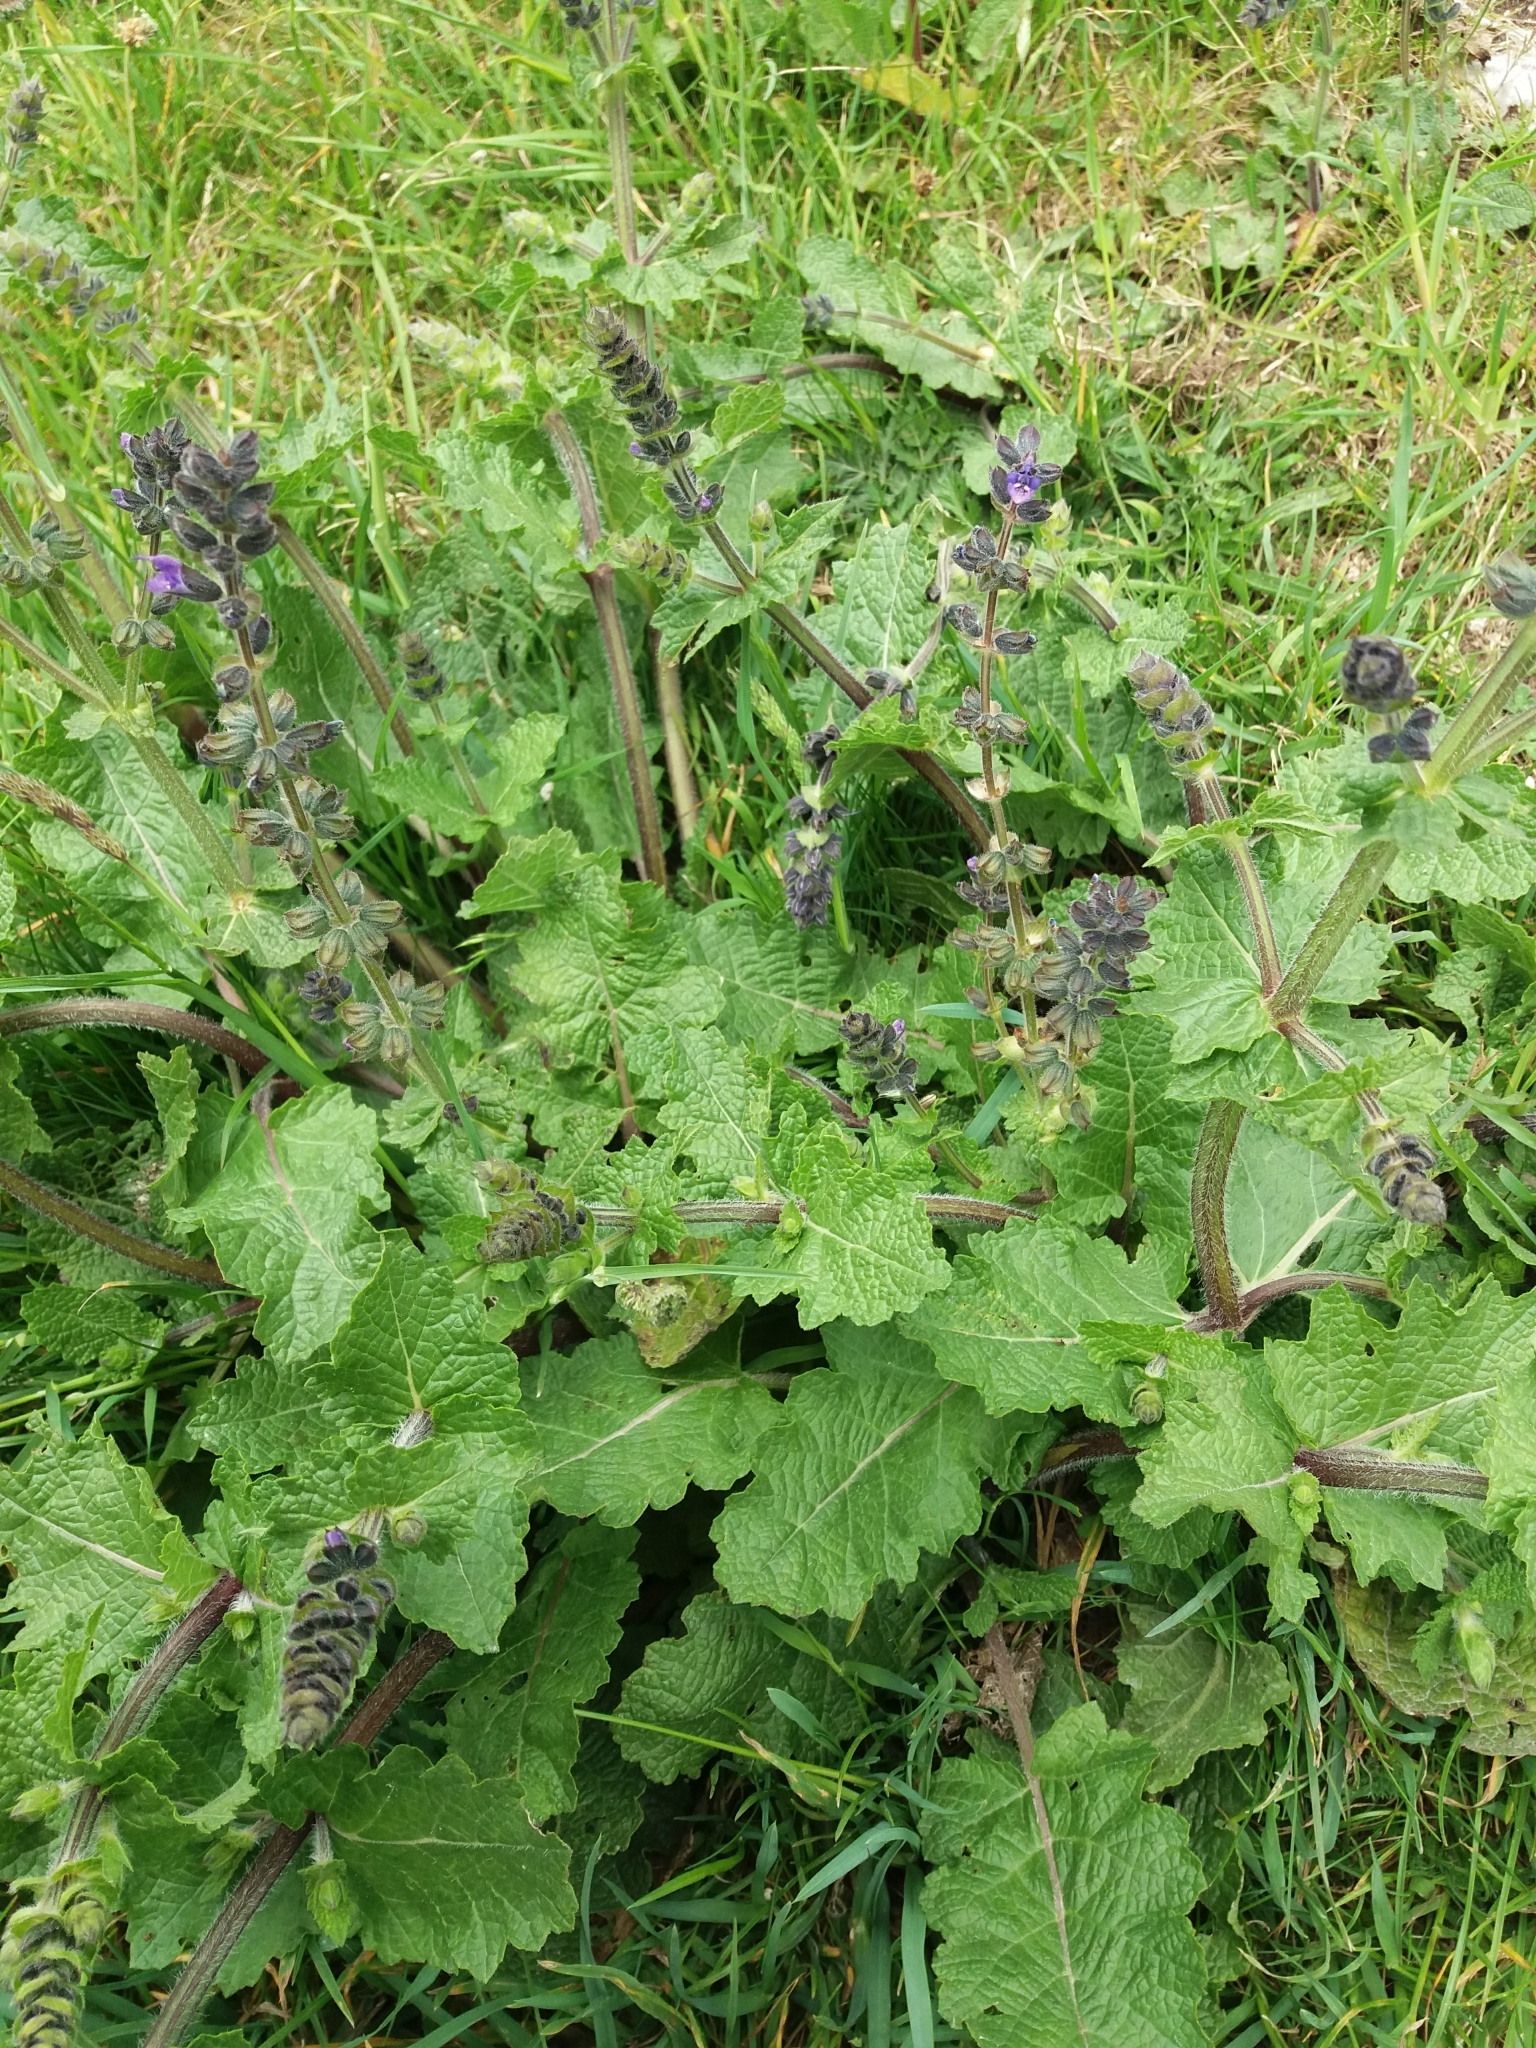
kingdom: Plantae
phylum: Tracheophyta
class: Magnoliopsida
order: Lamiales
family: Lamiaceae
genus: Salvia
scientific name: Salvia verbenaca
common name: Wild clary
